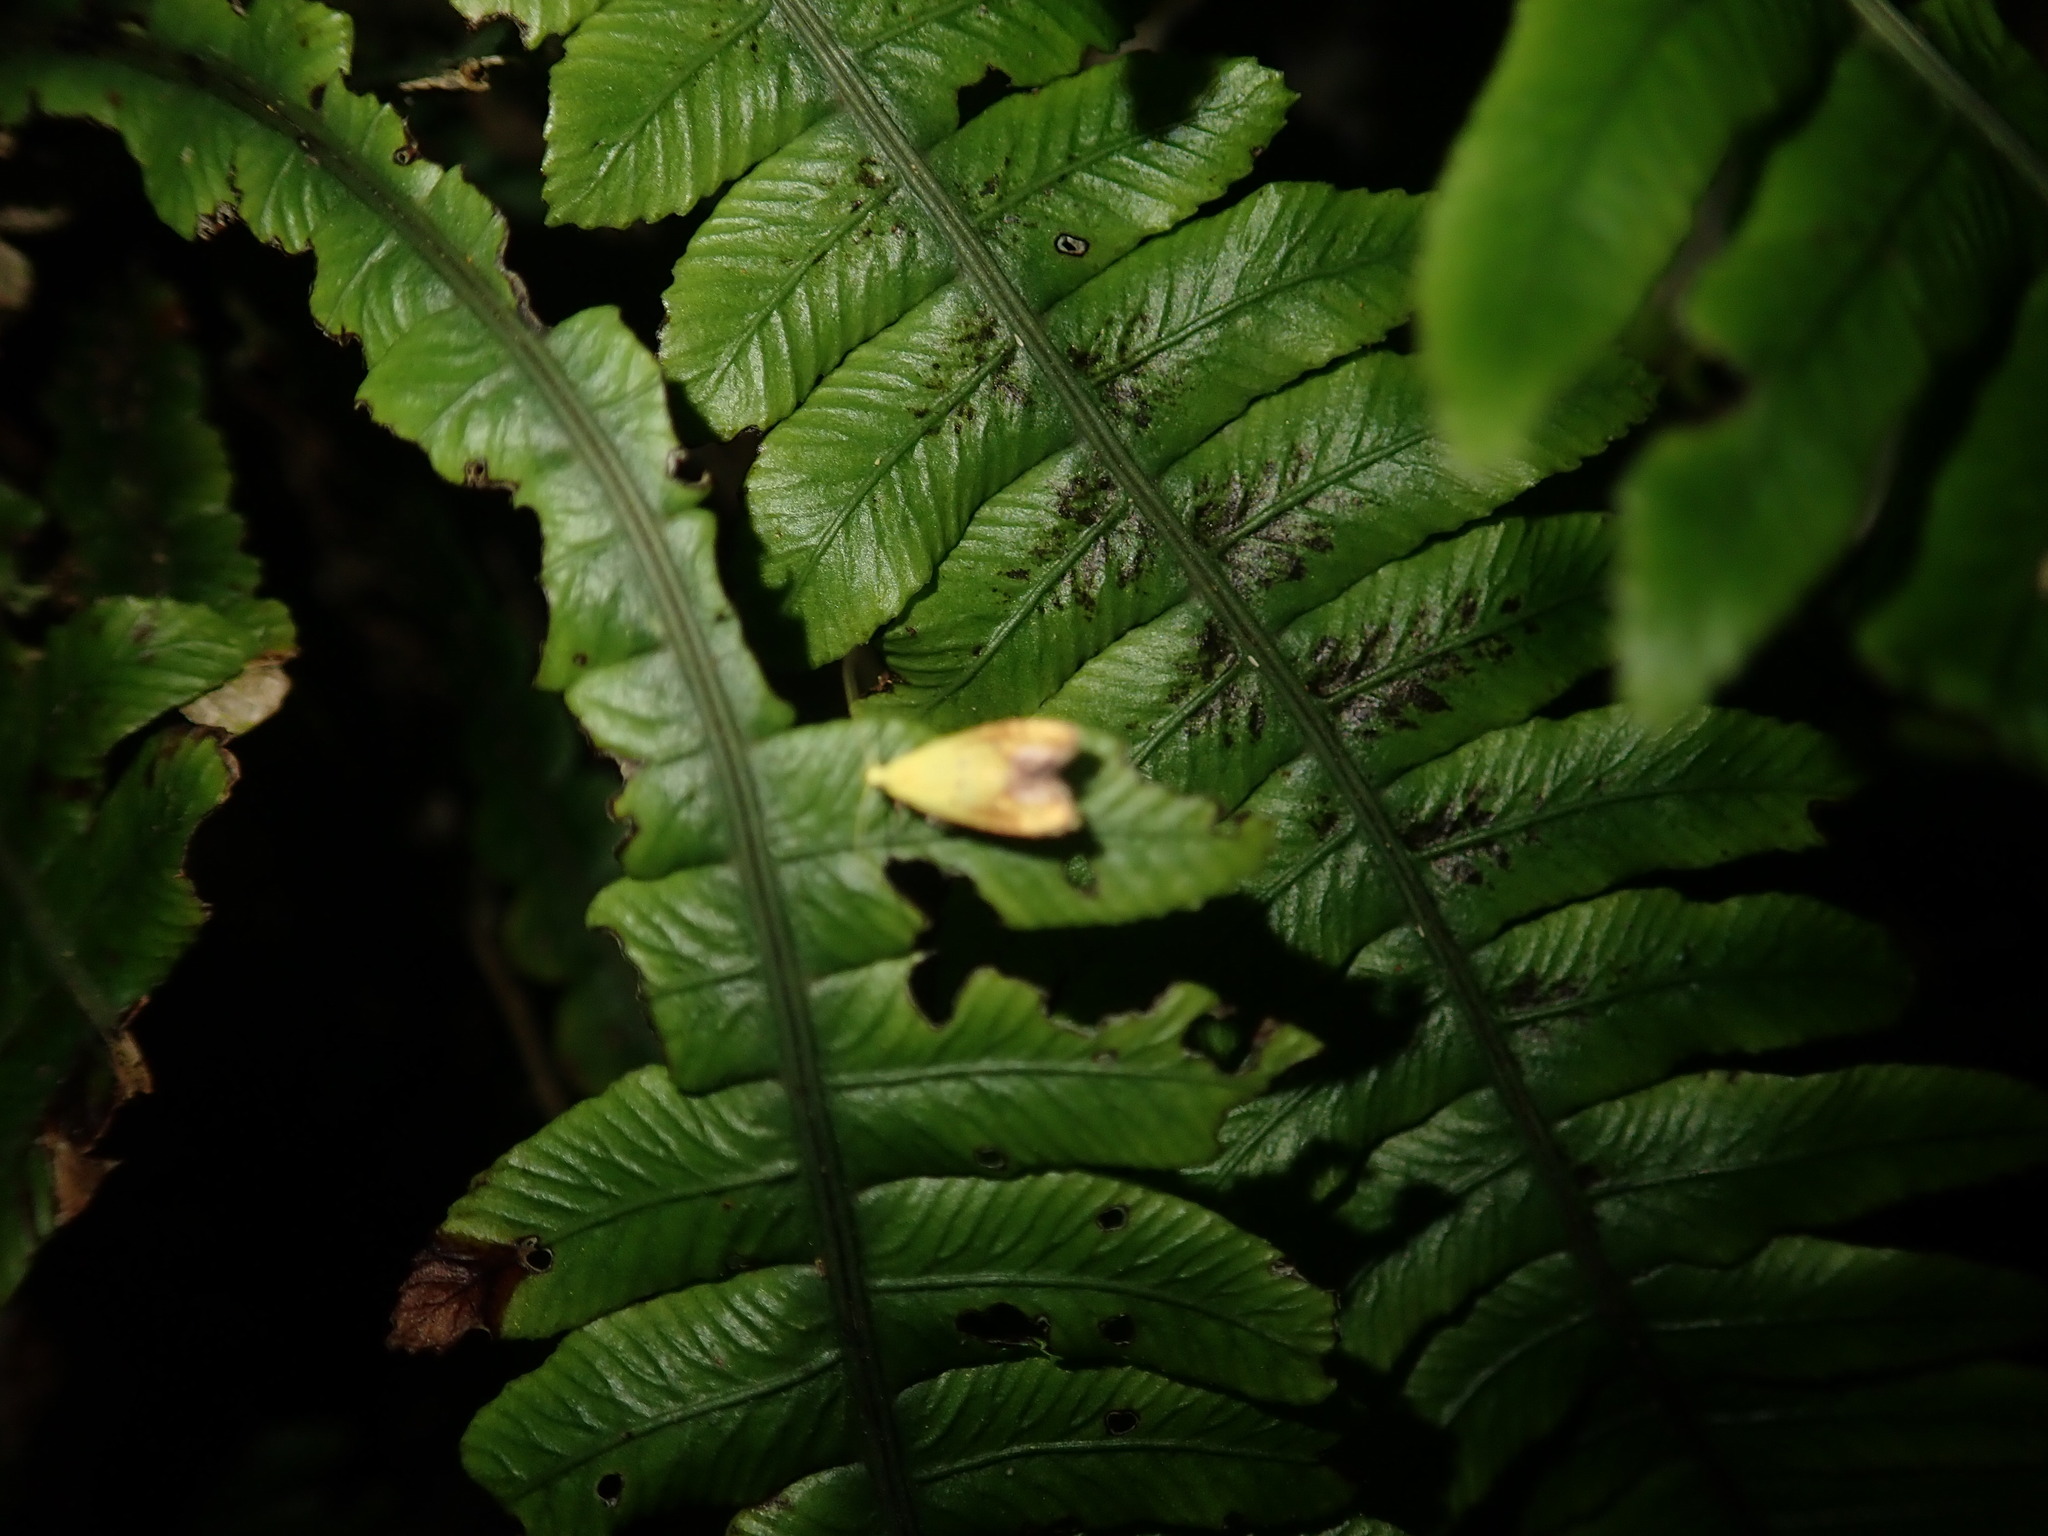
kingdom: Animalia
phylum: Arthropoda
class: Insecta
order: Lepidoptera
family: Oecophoridae
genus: Gymnobathra
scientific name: Gymnobathra flavidella
